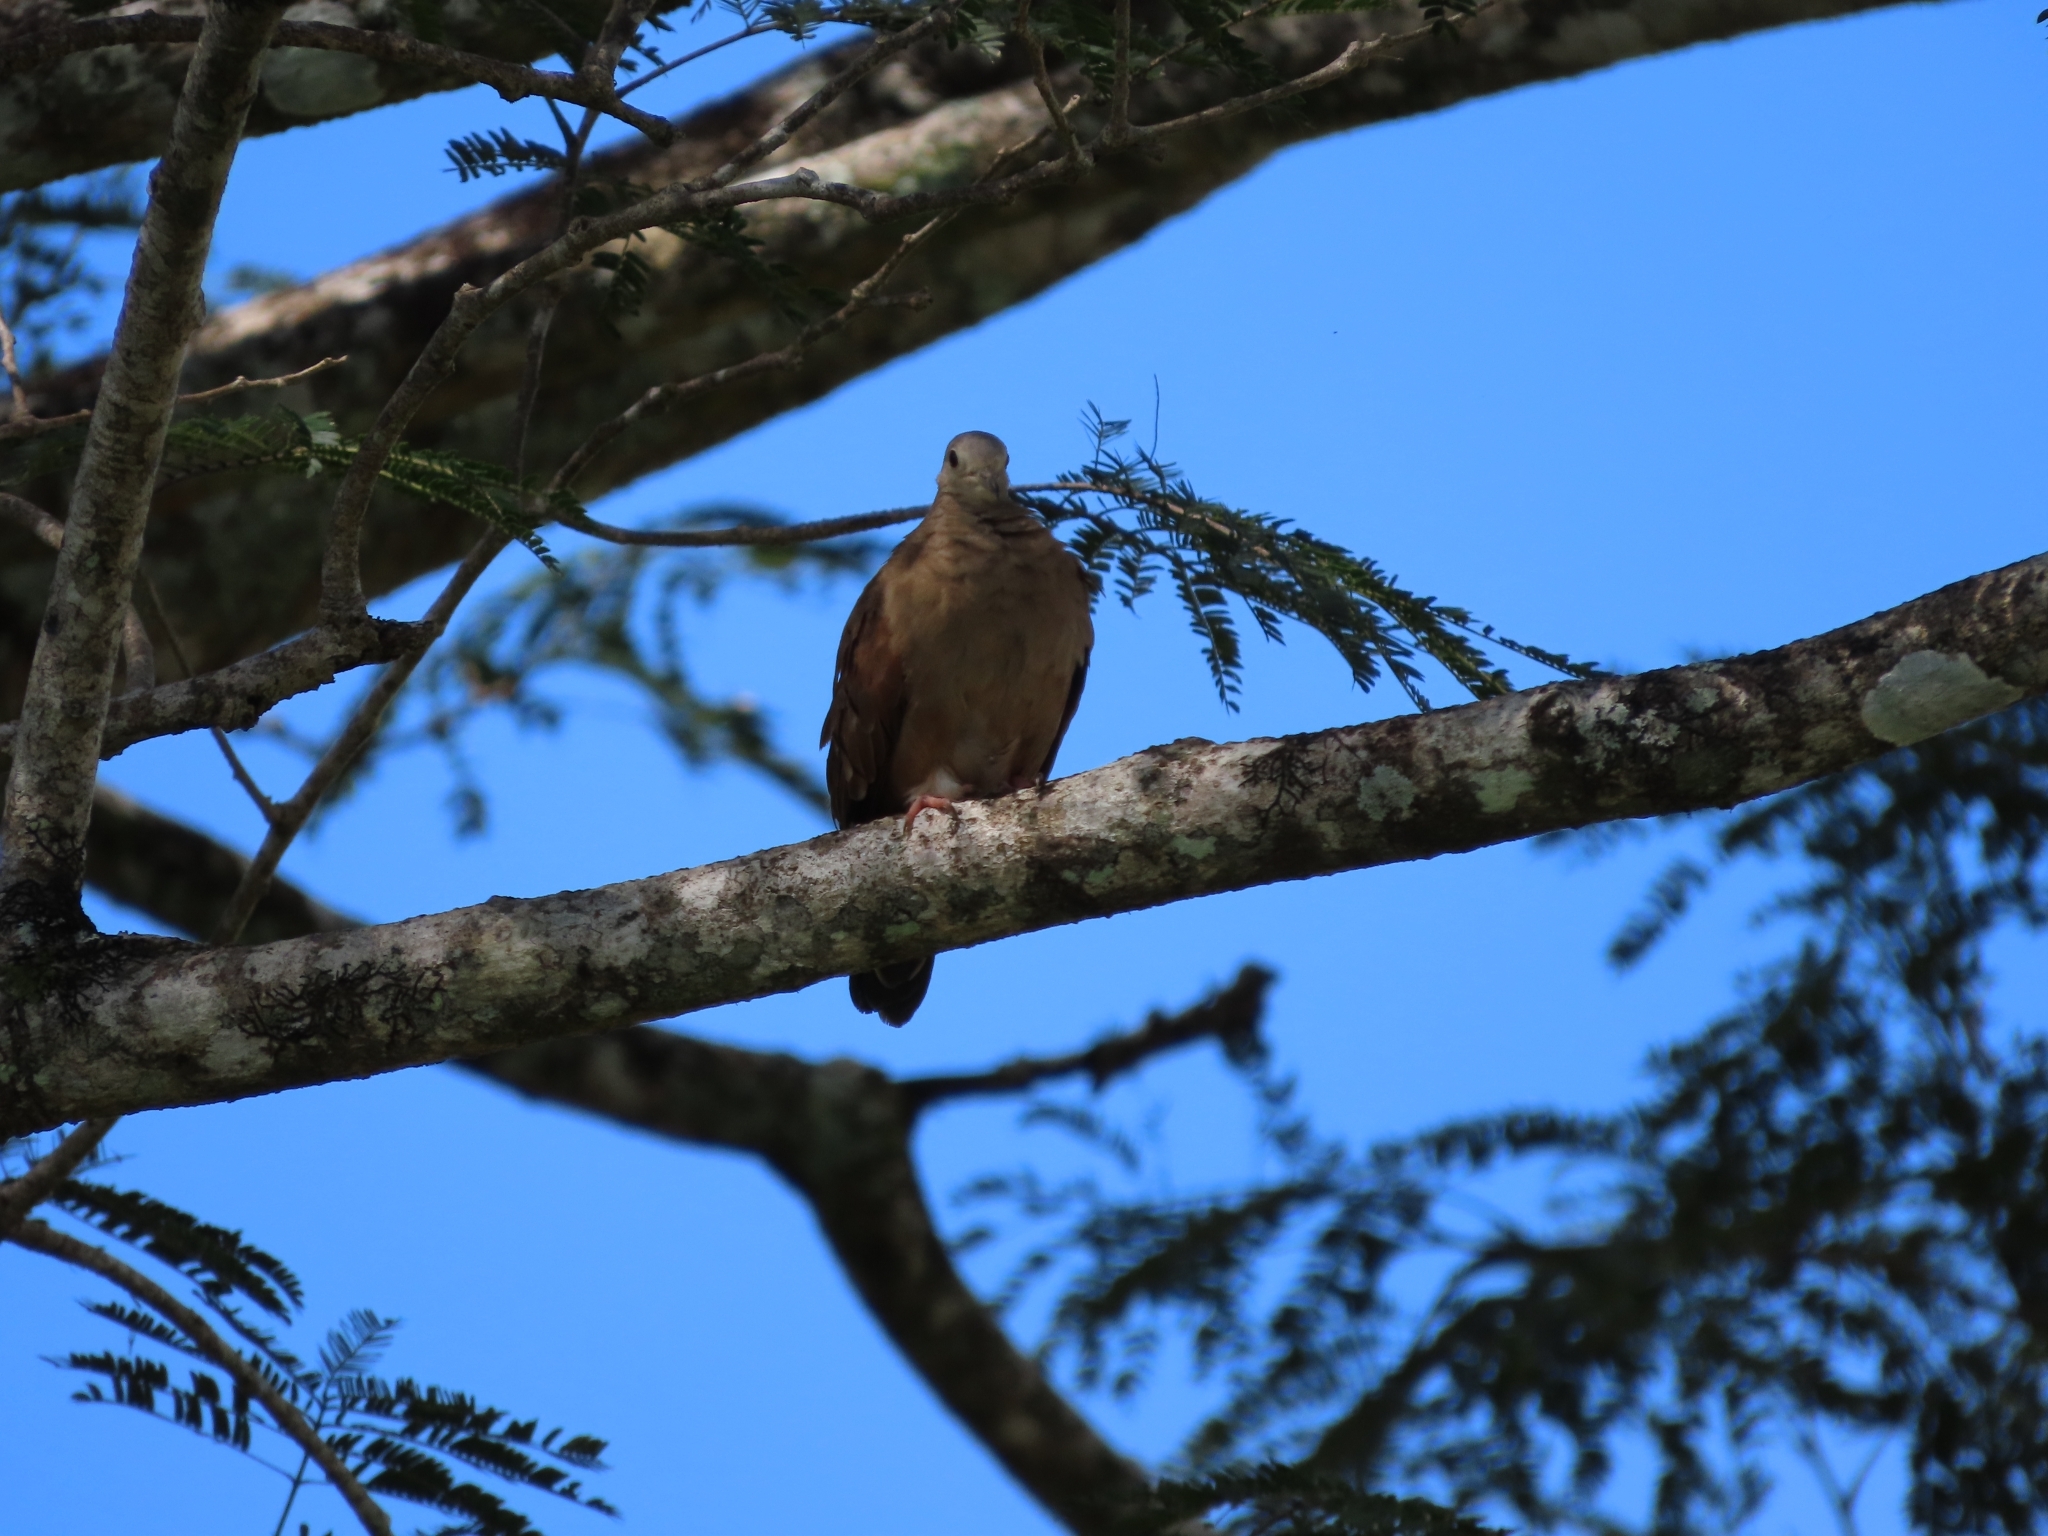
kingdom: Animalia
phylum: Chordata
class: Aves
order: Columbiformes
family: Columbidae
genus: Columbina
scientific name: Columbina talpacoti
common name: Ruddy ground dove
